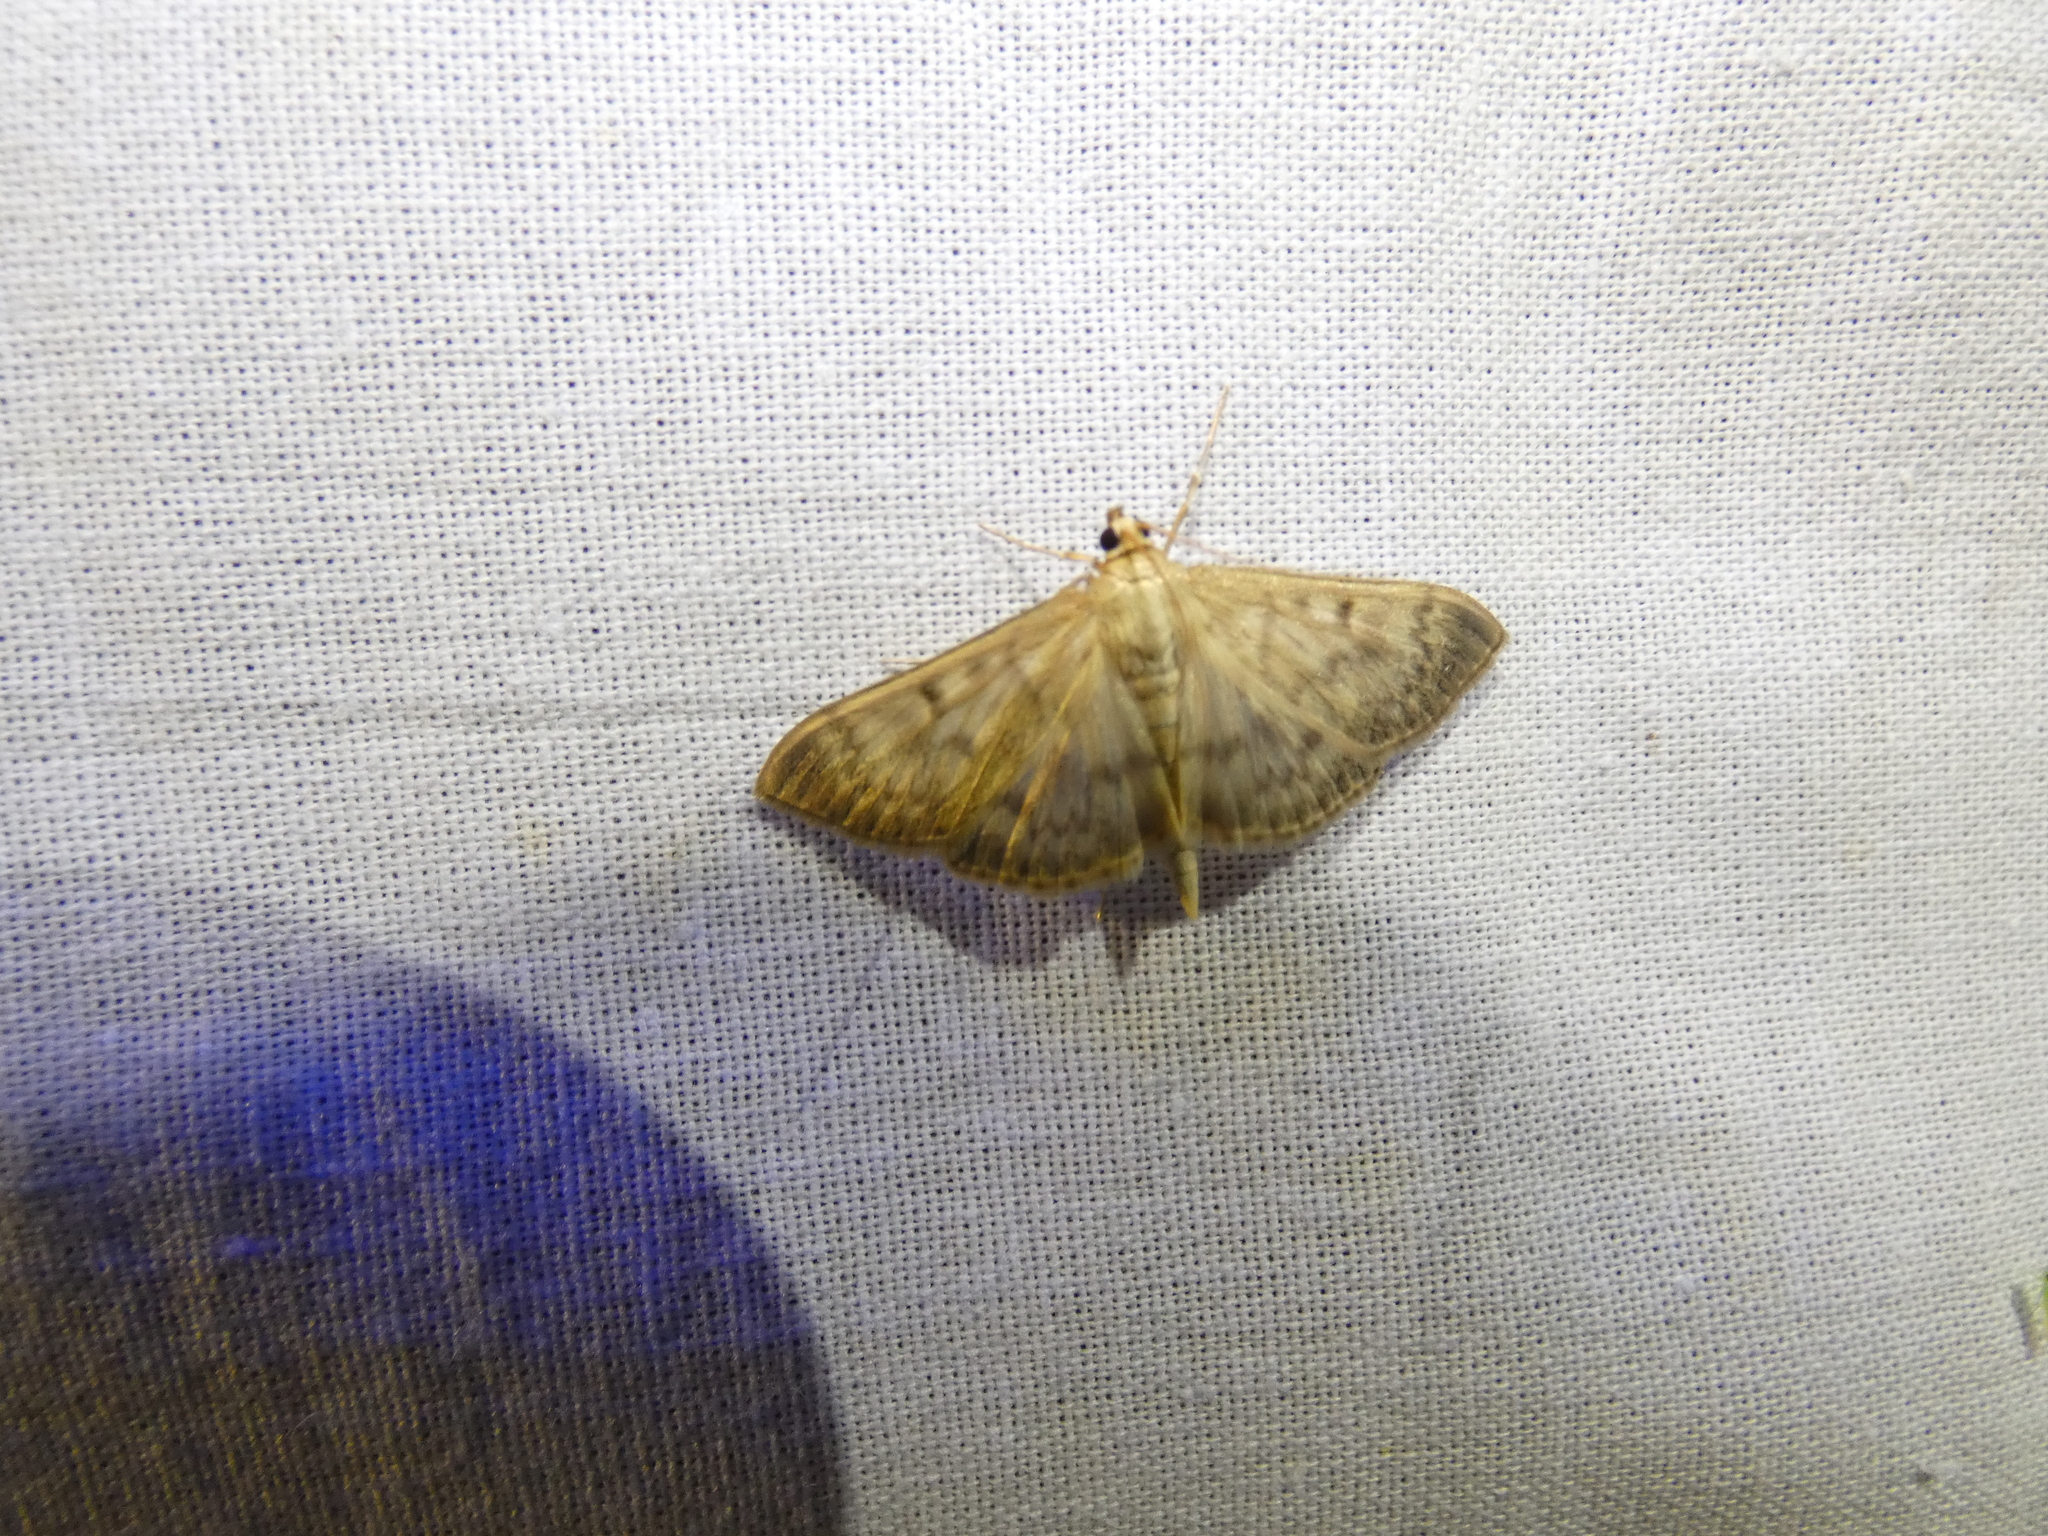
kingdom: Animalia
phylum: Arthropoda
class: Insecta
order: Lepidoptera
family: Crambidae
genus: Patania
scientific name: Patania ruralis
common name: Mother of pearl
